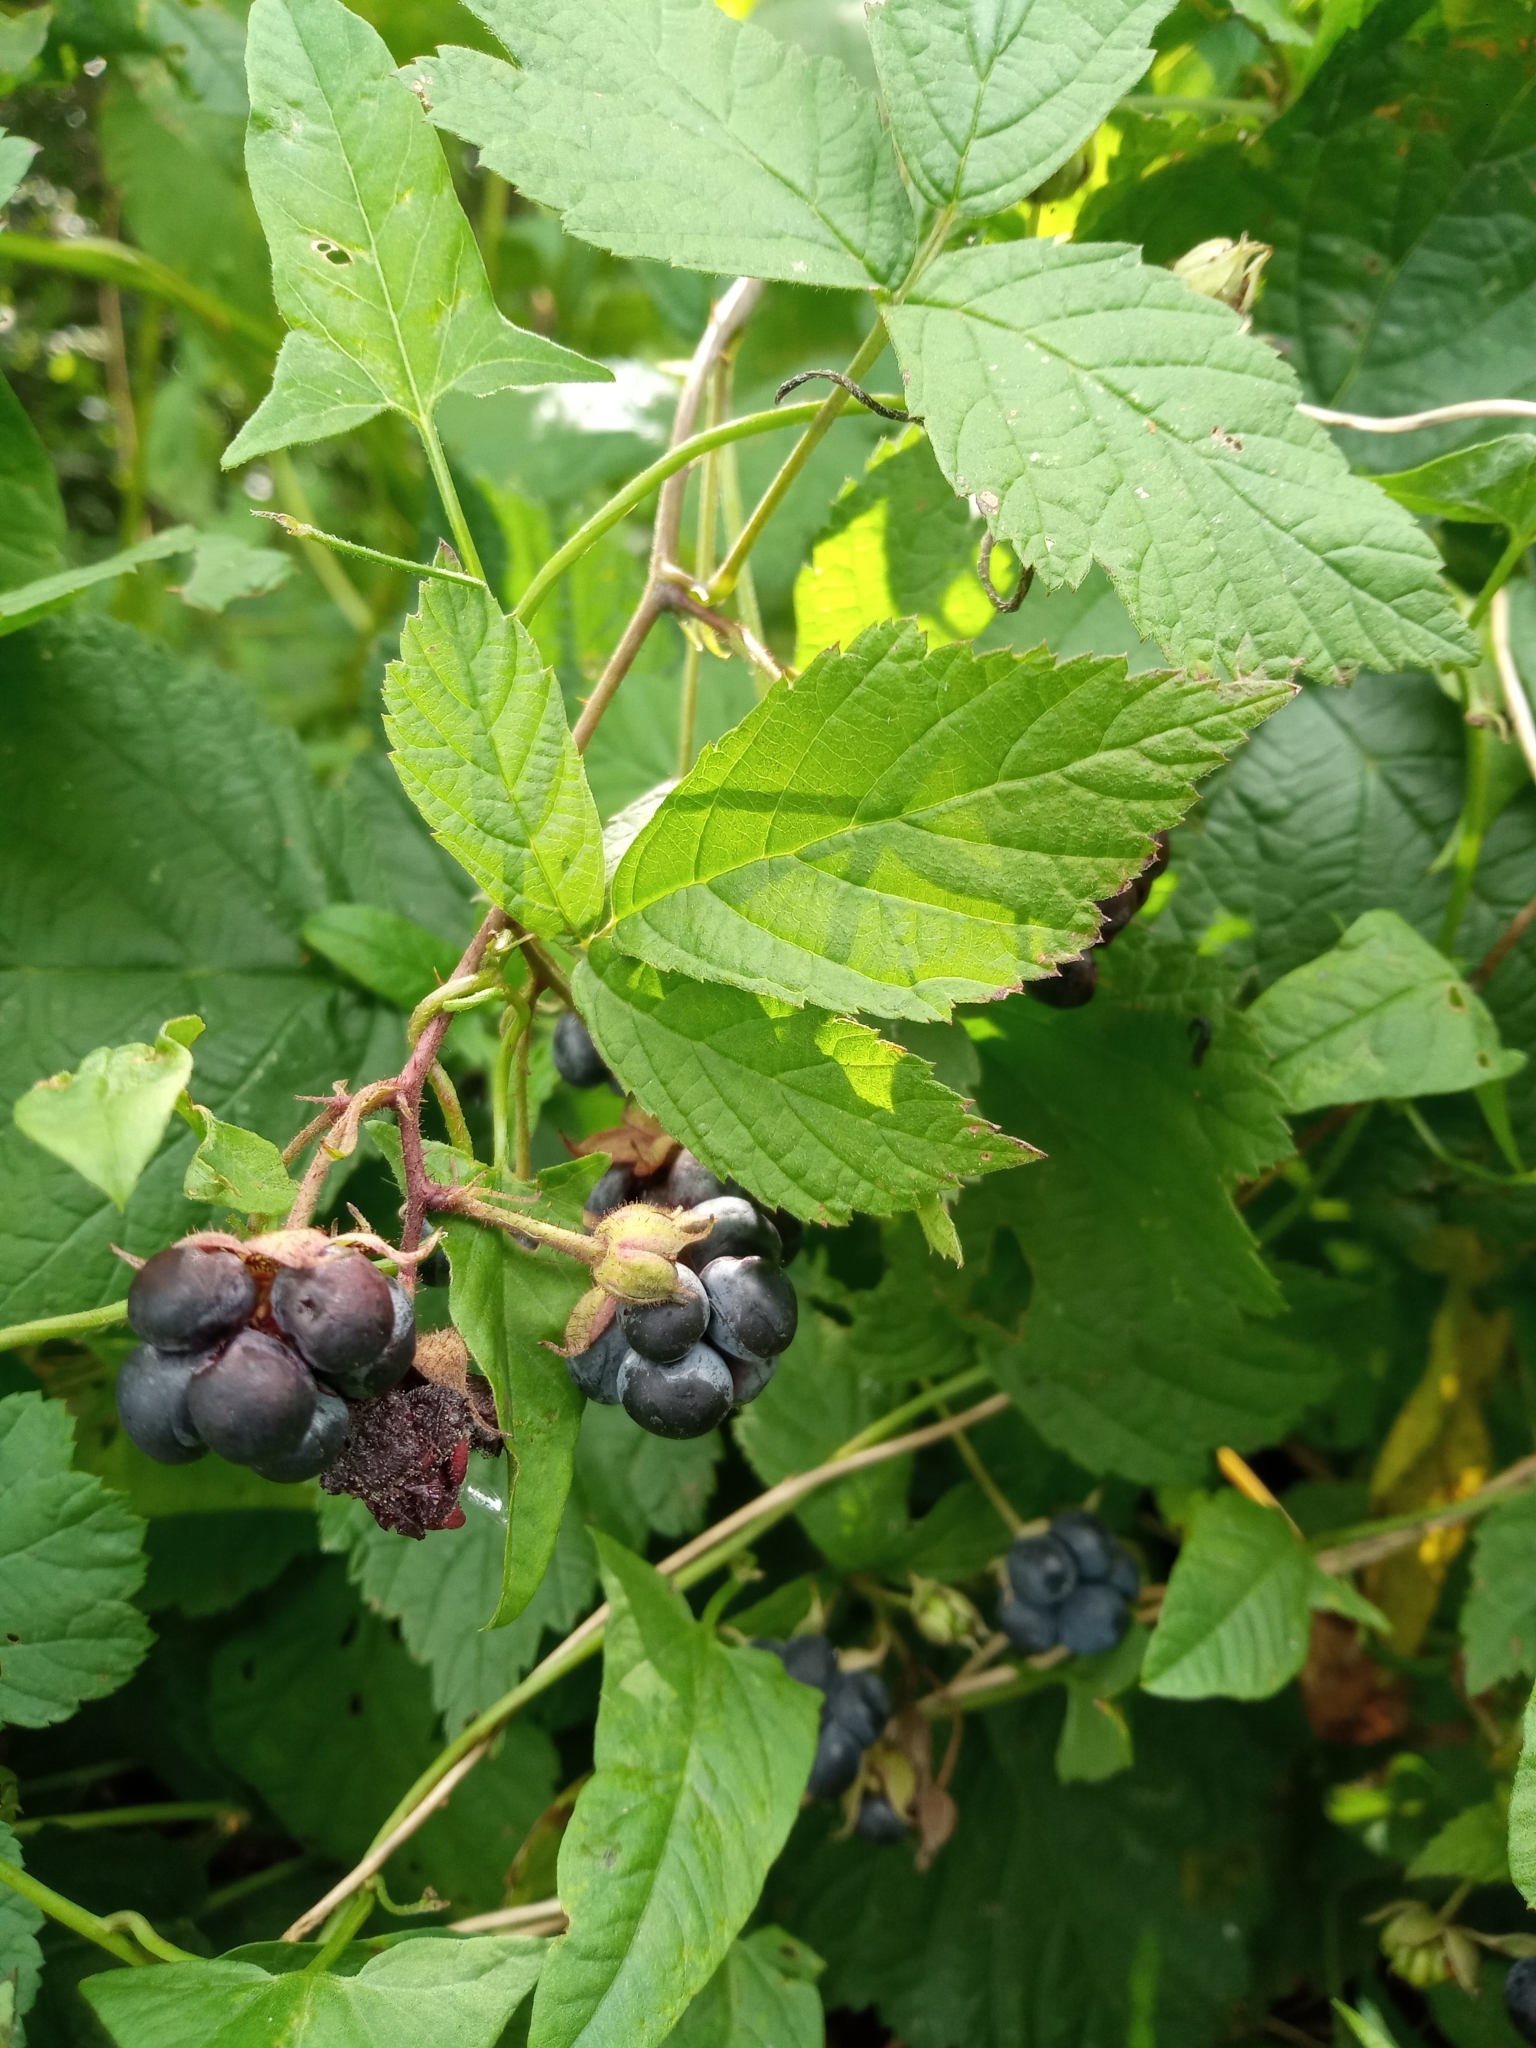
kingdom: Plantae
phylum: Tracheophyta
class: Magnoliopsida
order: Rosales
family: Rosaceae
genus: Rubus
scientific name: Rubus caesius
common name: Dewberry
